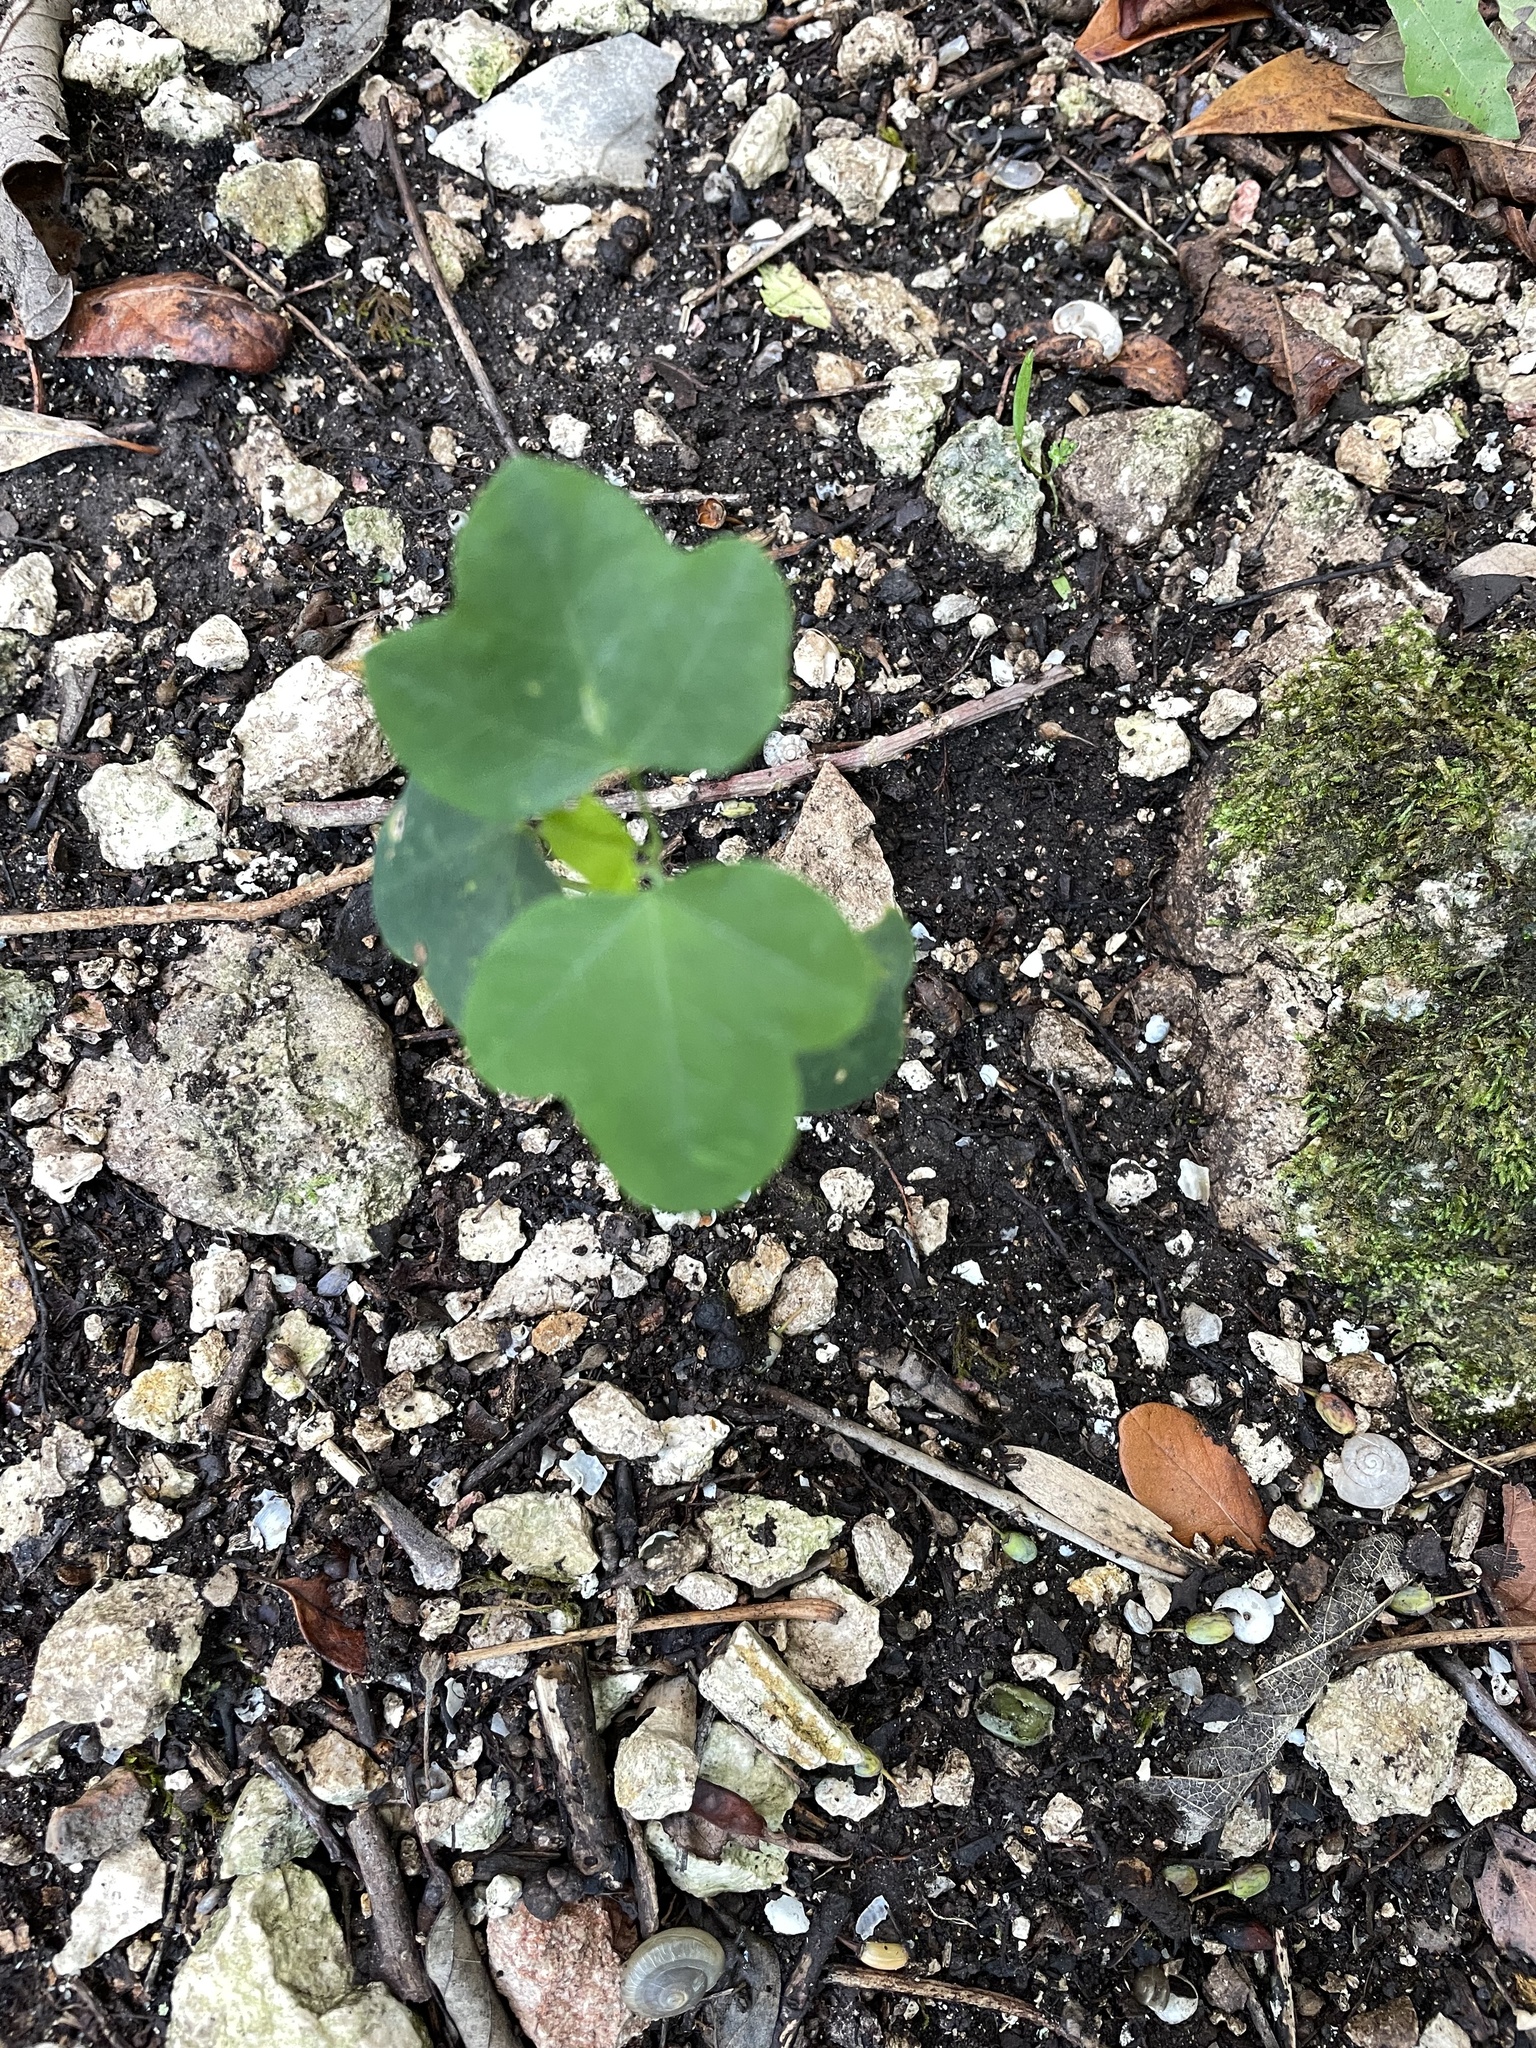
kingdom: Plantae
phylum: Tracheophyta
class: Magnoliopsida
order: Malpighiales
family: Passifloraceae
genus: Passiflora
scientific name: Passiflora lutea
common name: Yellow passionflower
